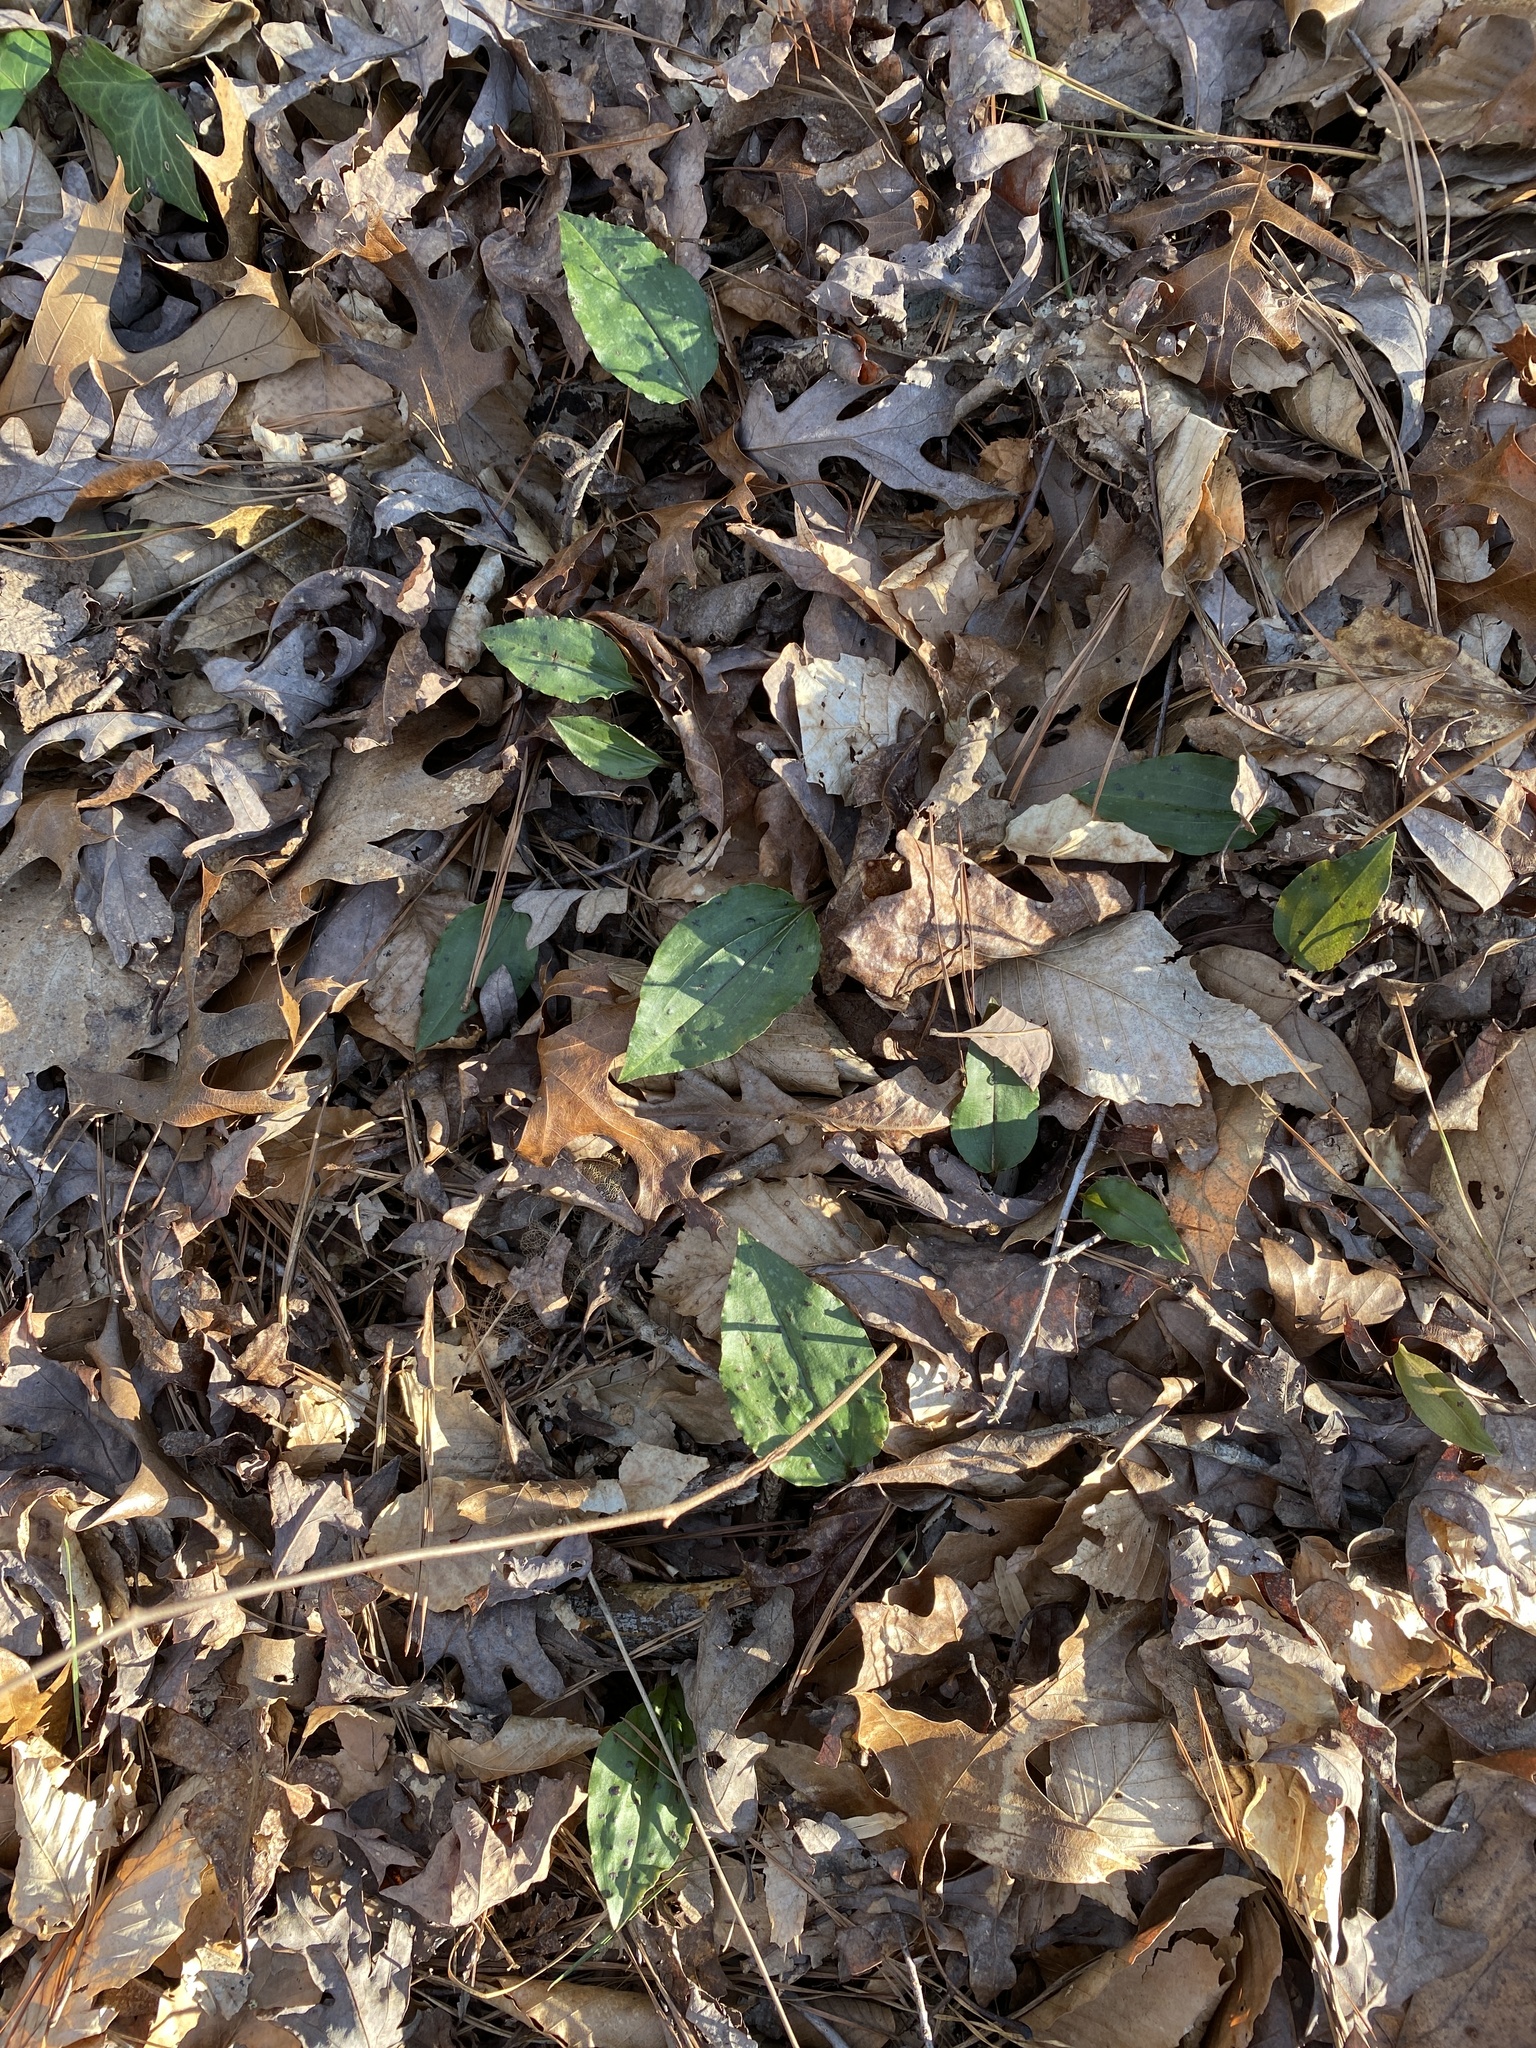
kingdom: Plantae
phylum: Tracheophyta
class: Liliopsida
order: Asparagales
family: Orchidaceae
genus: Tipularia
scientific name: Tipularia discolor
